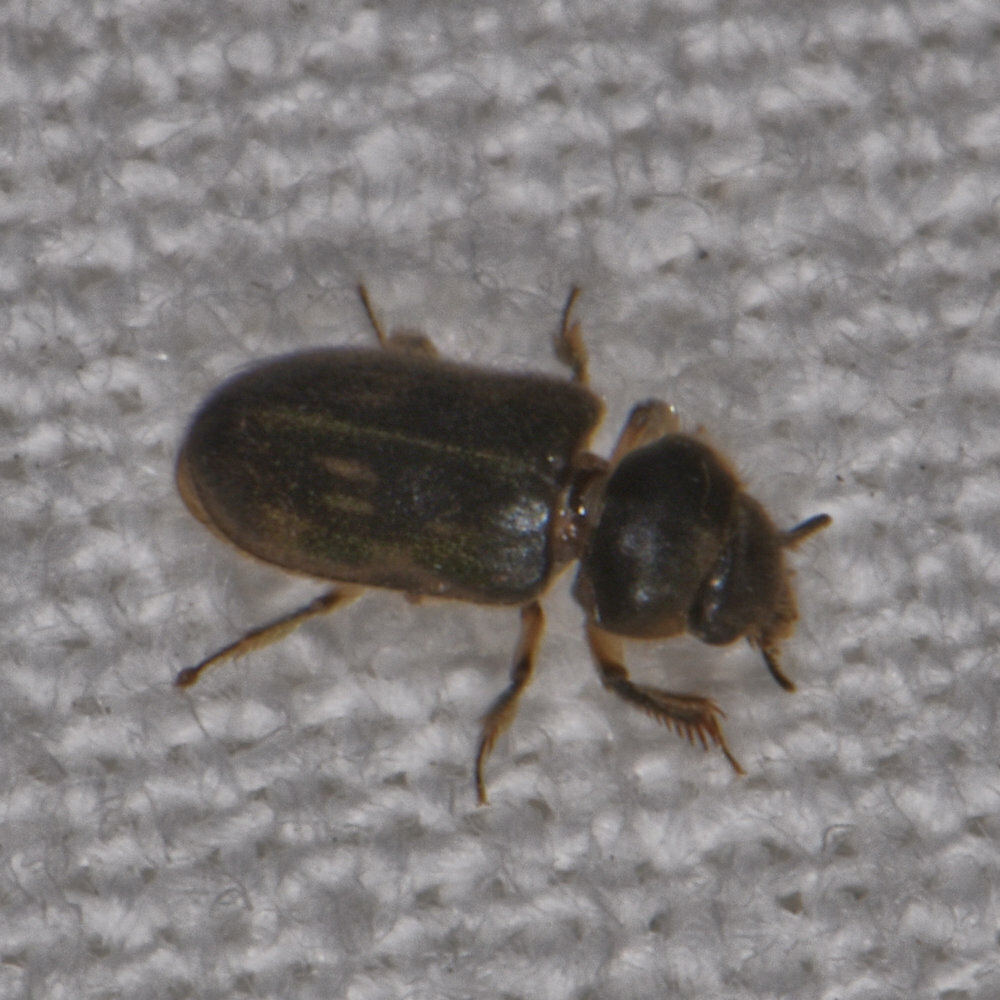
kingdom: Animalia
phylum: Arthropoda
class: Insecta
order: Coleoptera
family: Heteroceridae
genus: Heterocerus
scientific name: Heterocerus fenestratus
